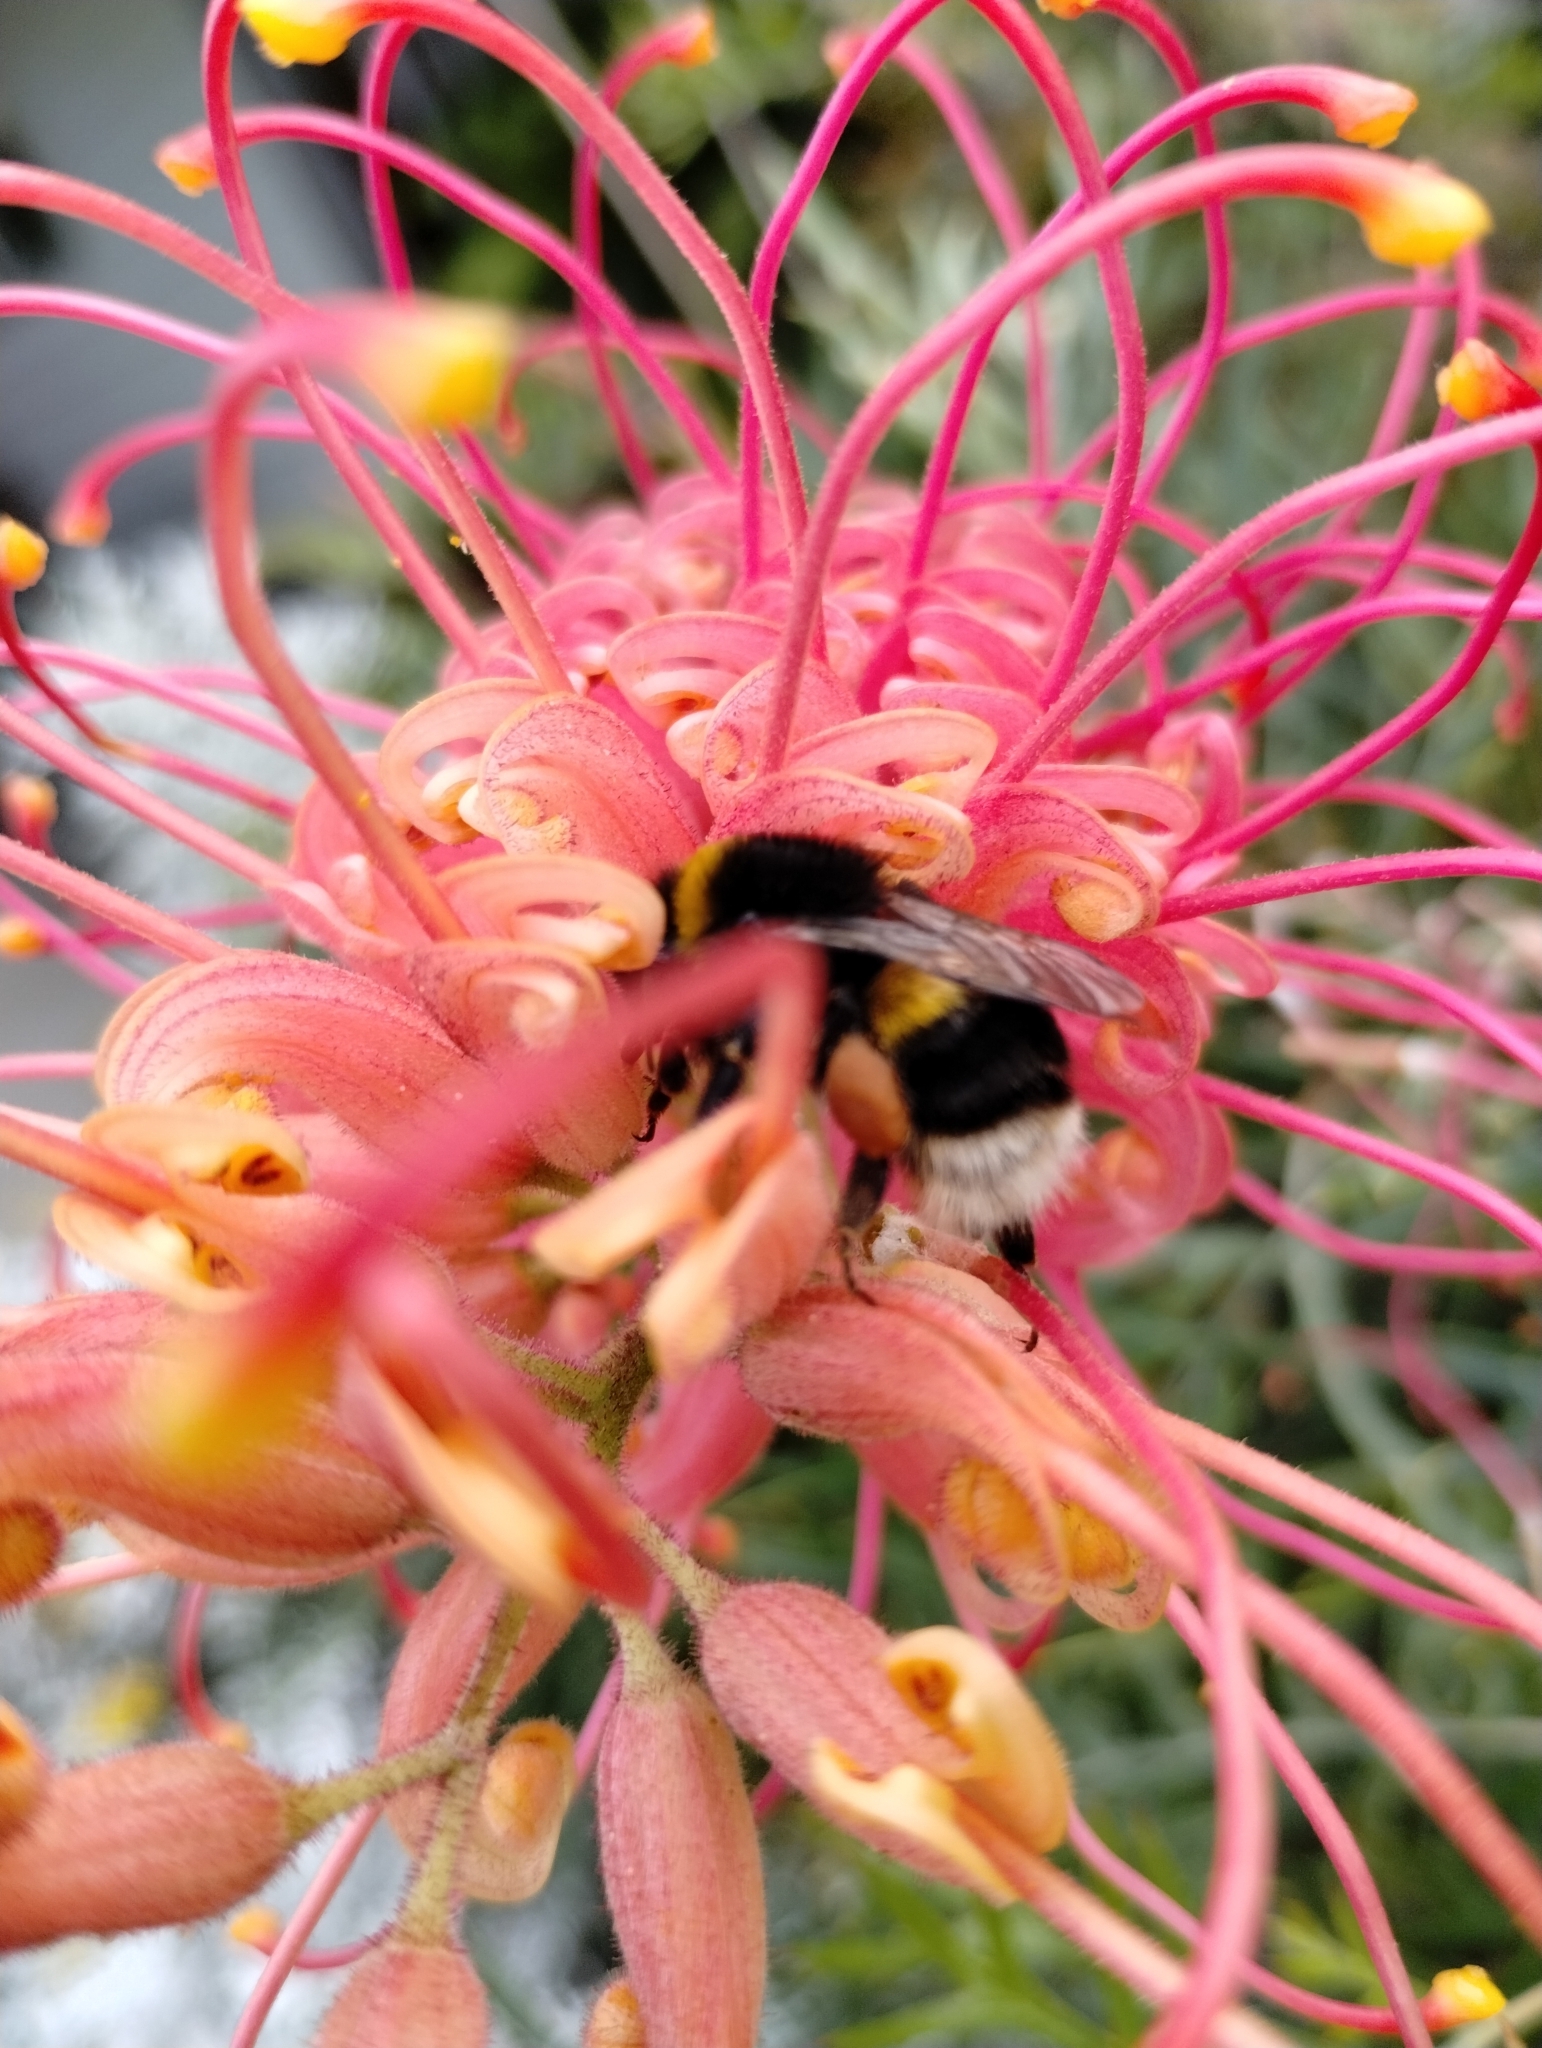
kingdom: Animalia
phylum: Arthropoda
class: Insecta
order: Hymenoptera
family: Apidae
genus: Bombus
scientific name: Bombus terrestris
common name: Buff-tailed bumblebee
